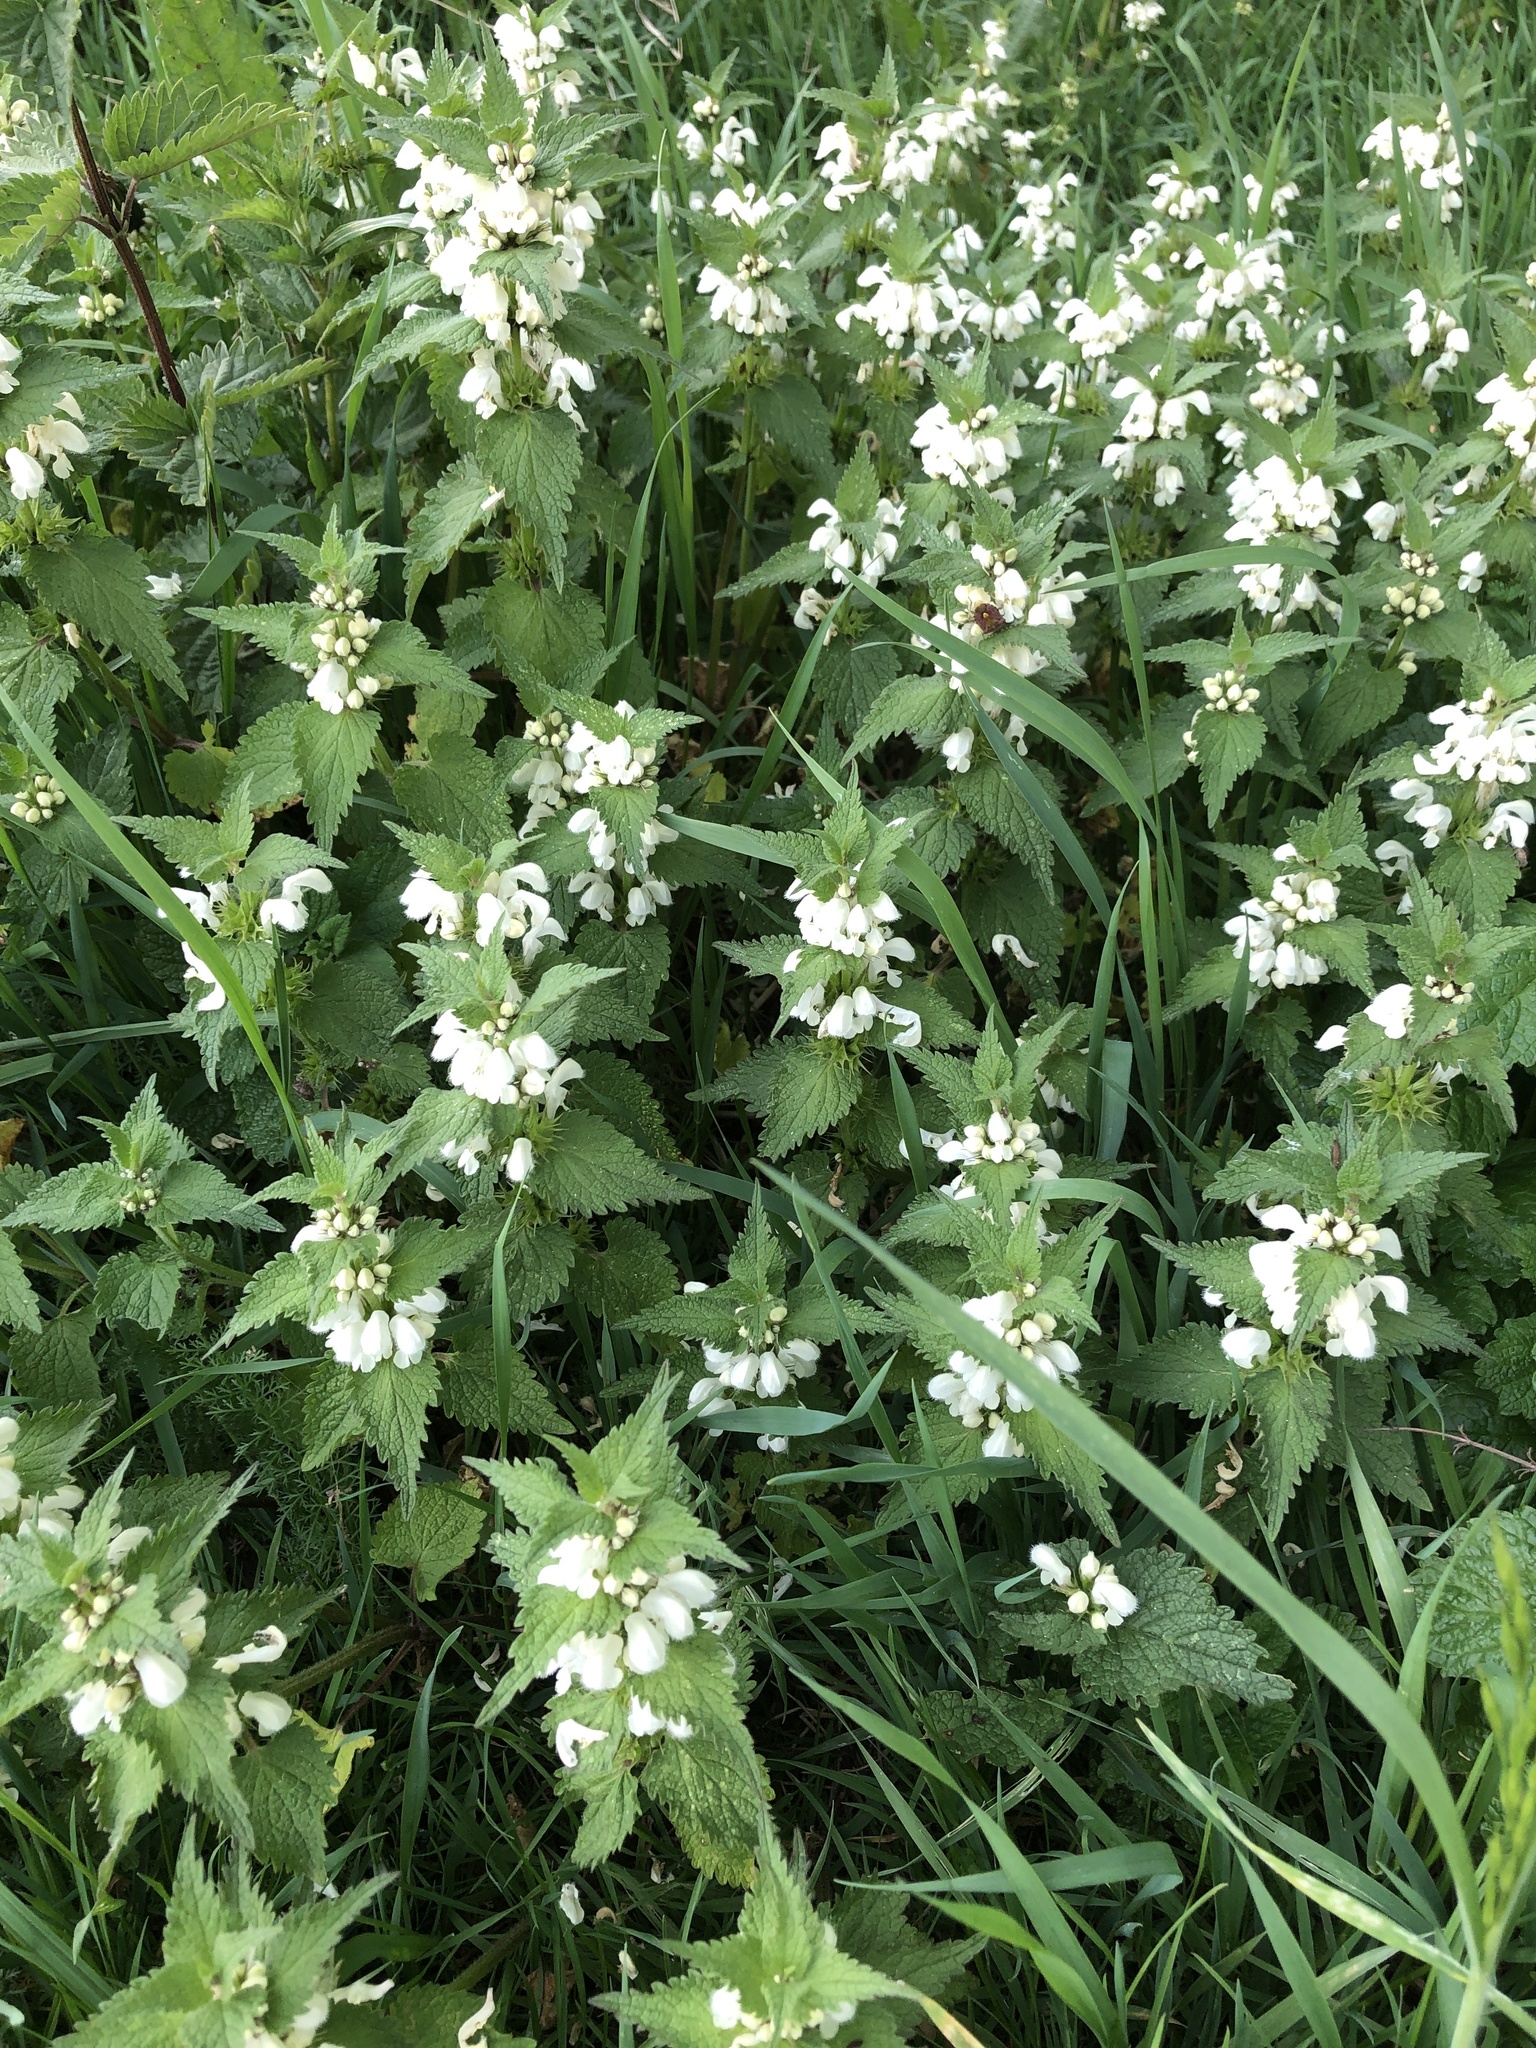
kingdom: Plantae
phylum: Tracheophyta
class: Magnoliopsida
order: Lamiales
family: Lamiaceae
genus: Lamium
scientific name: Lamium album
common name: White dead-nettle
